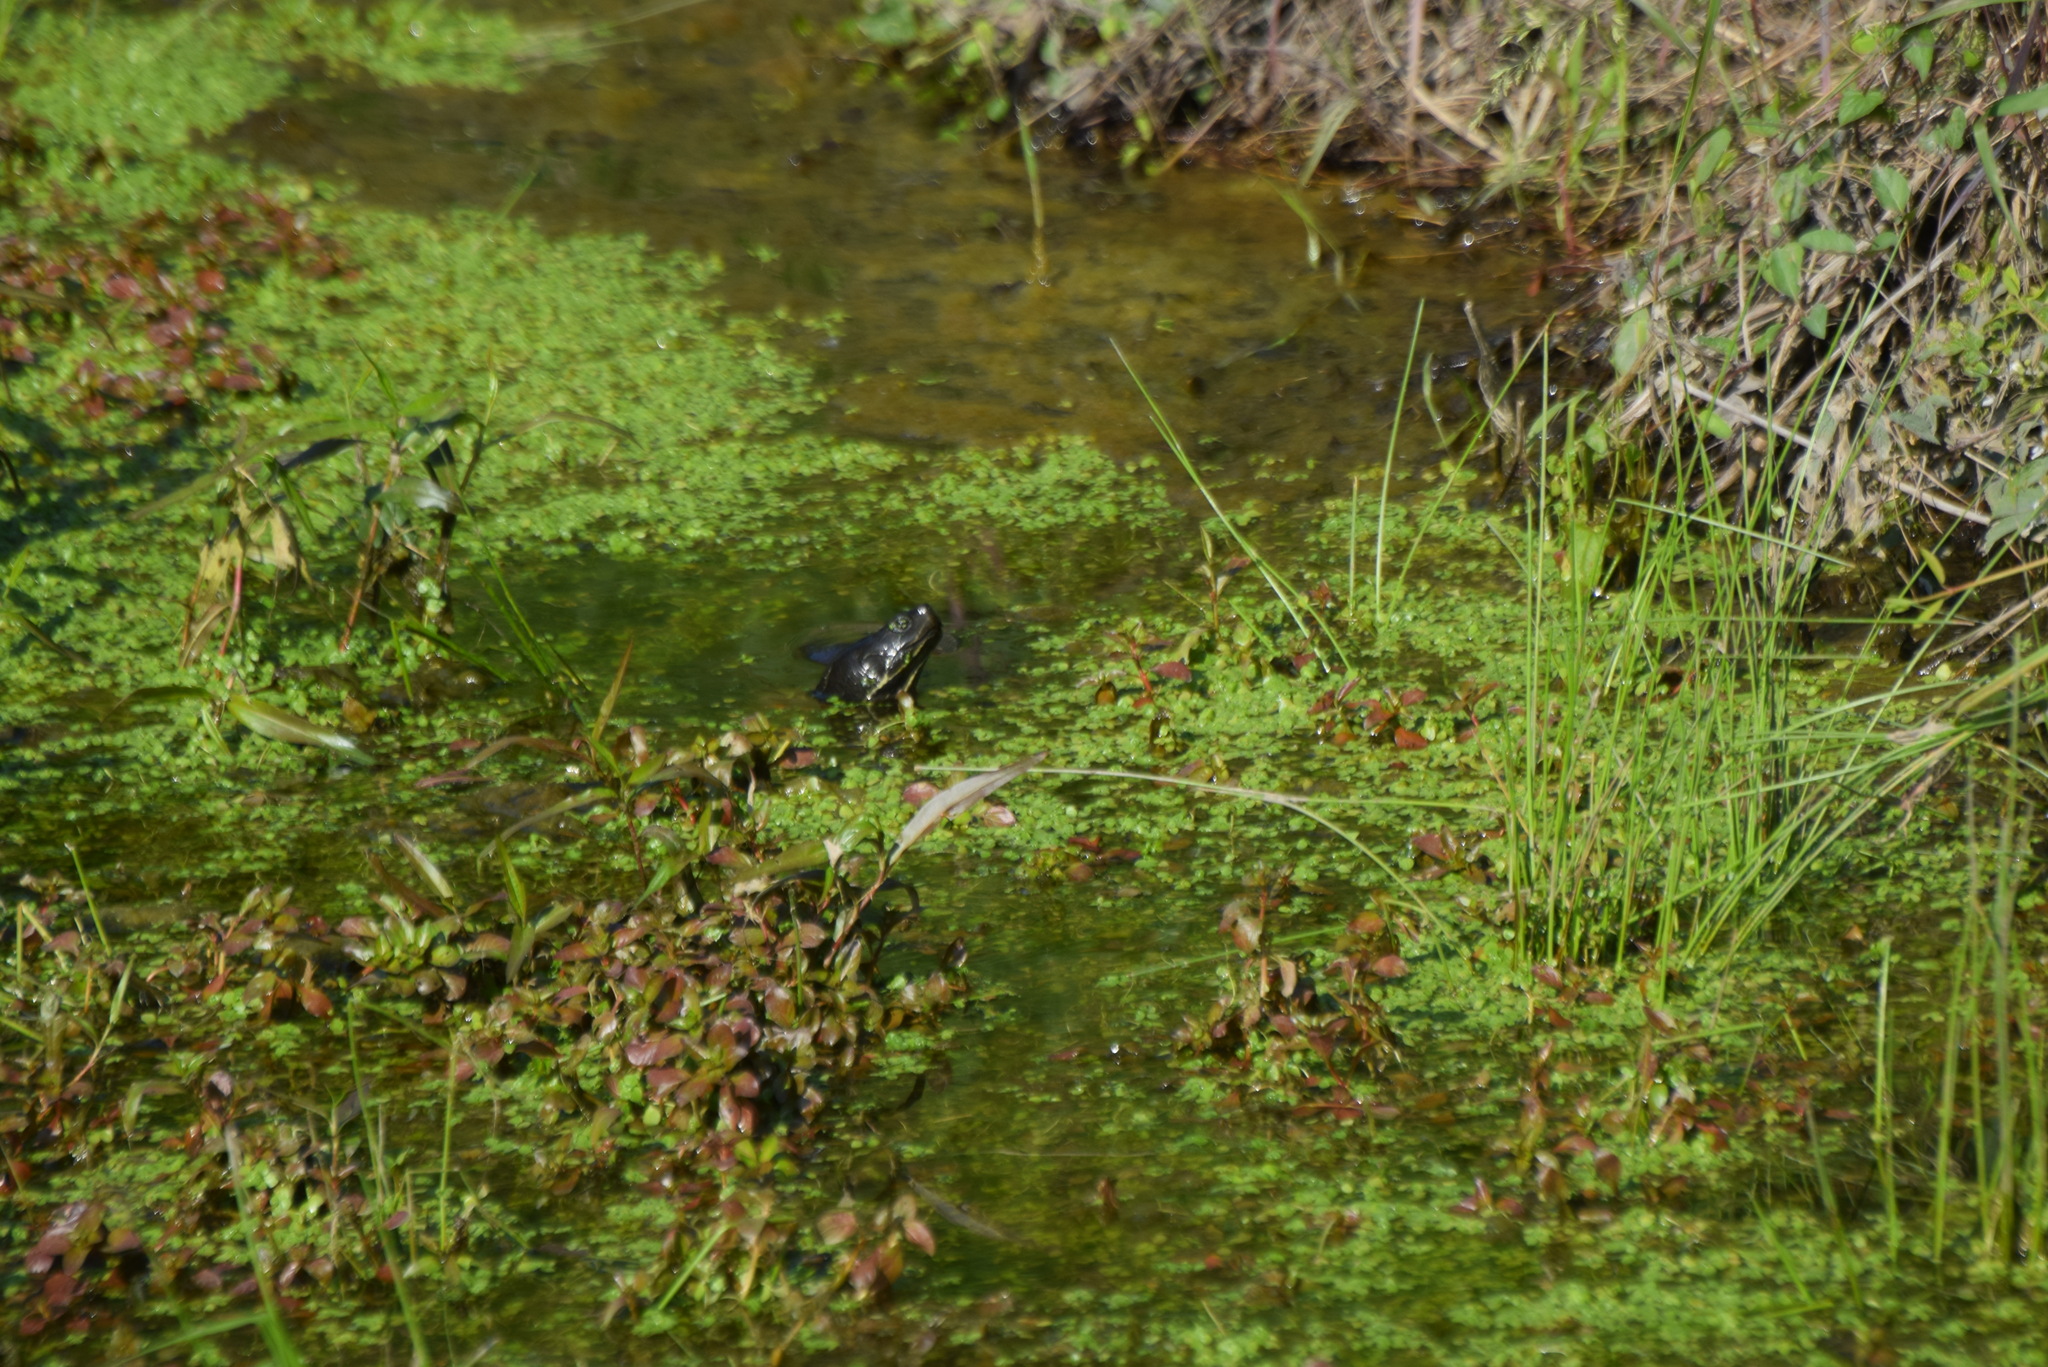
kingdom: Animalia
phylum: Chordata
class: Testudines
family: Emydidae
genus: Pseudemys
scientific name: Pseudemys rubriventris
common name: American red-bellied turtle
